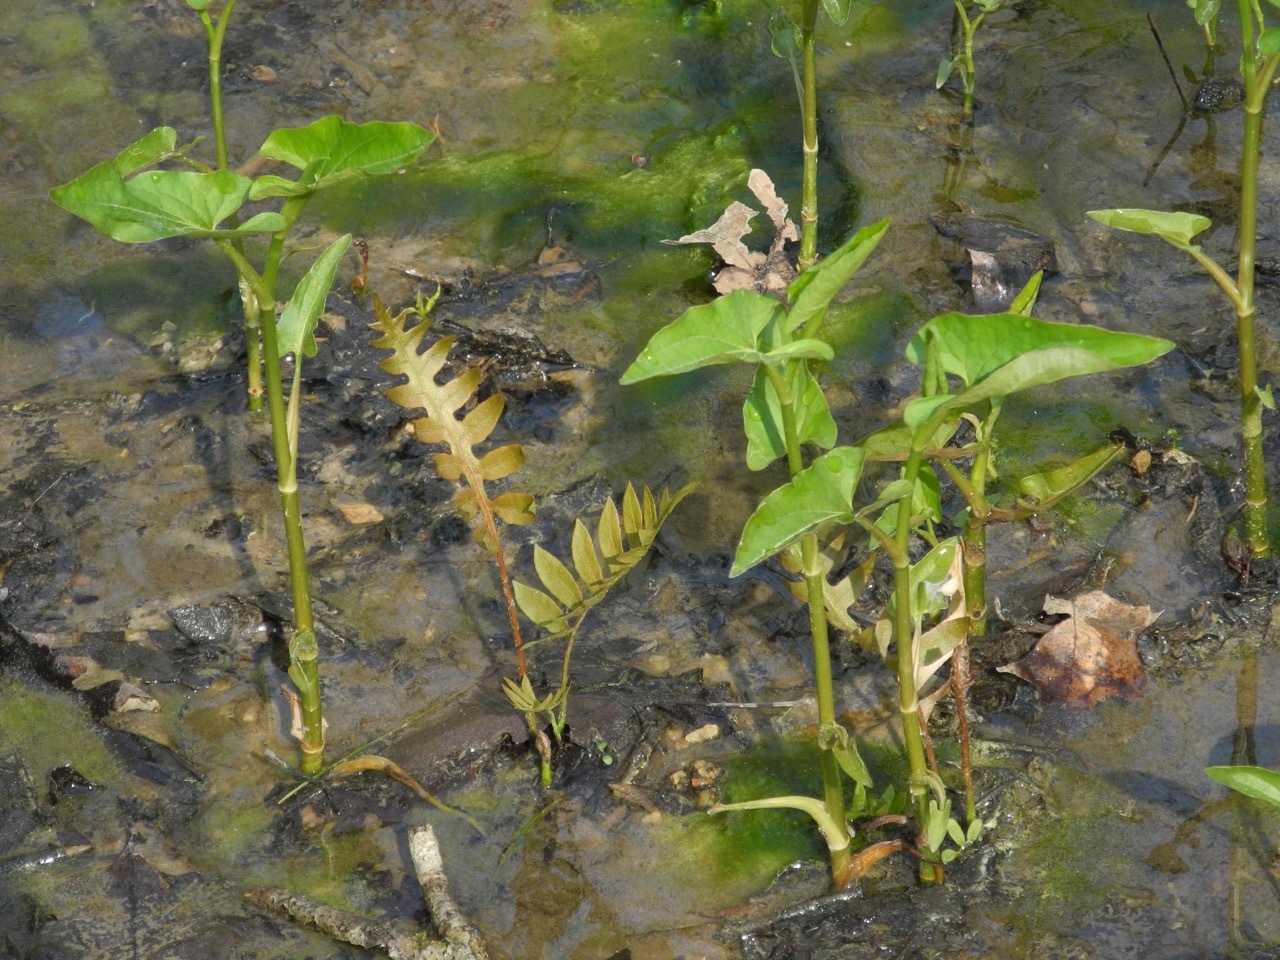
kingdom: Plantae
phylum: Tracheophyta
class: Polypodiopsida
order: Polypodiales
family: Blechnaceae
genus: Lorinseria
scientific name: Lorinseria areolata
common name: Dwarf chain fern
